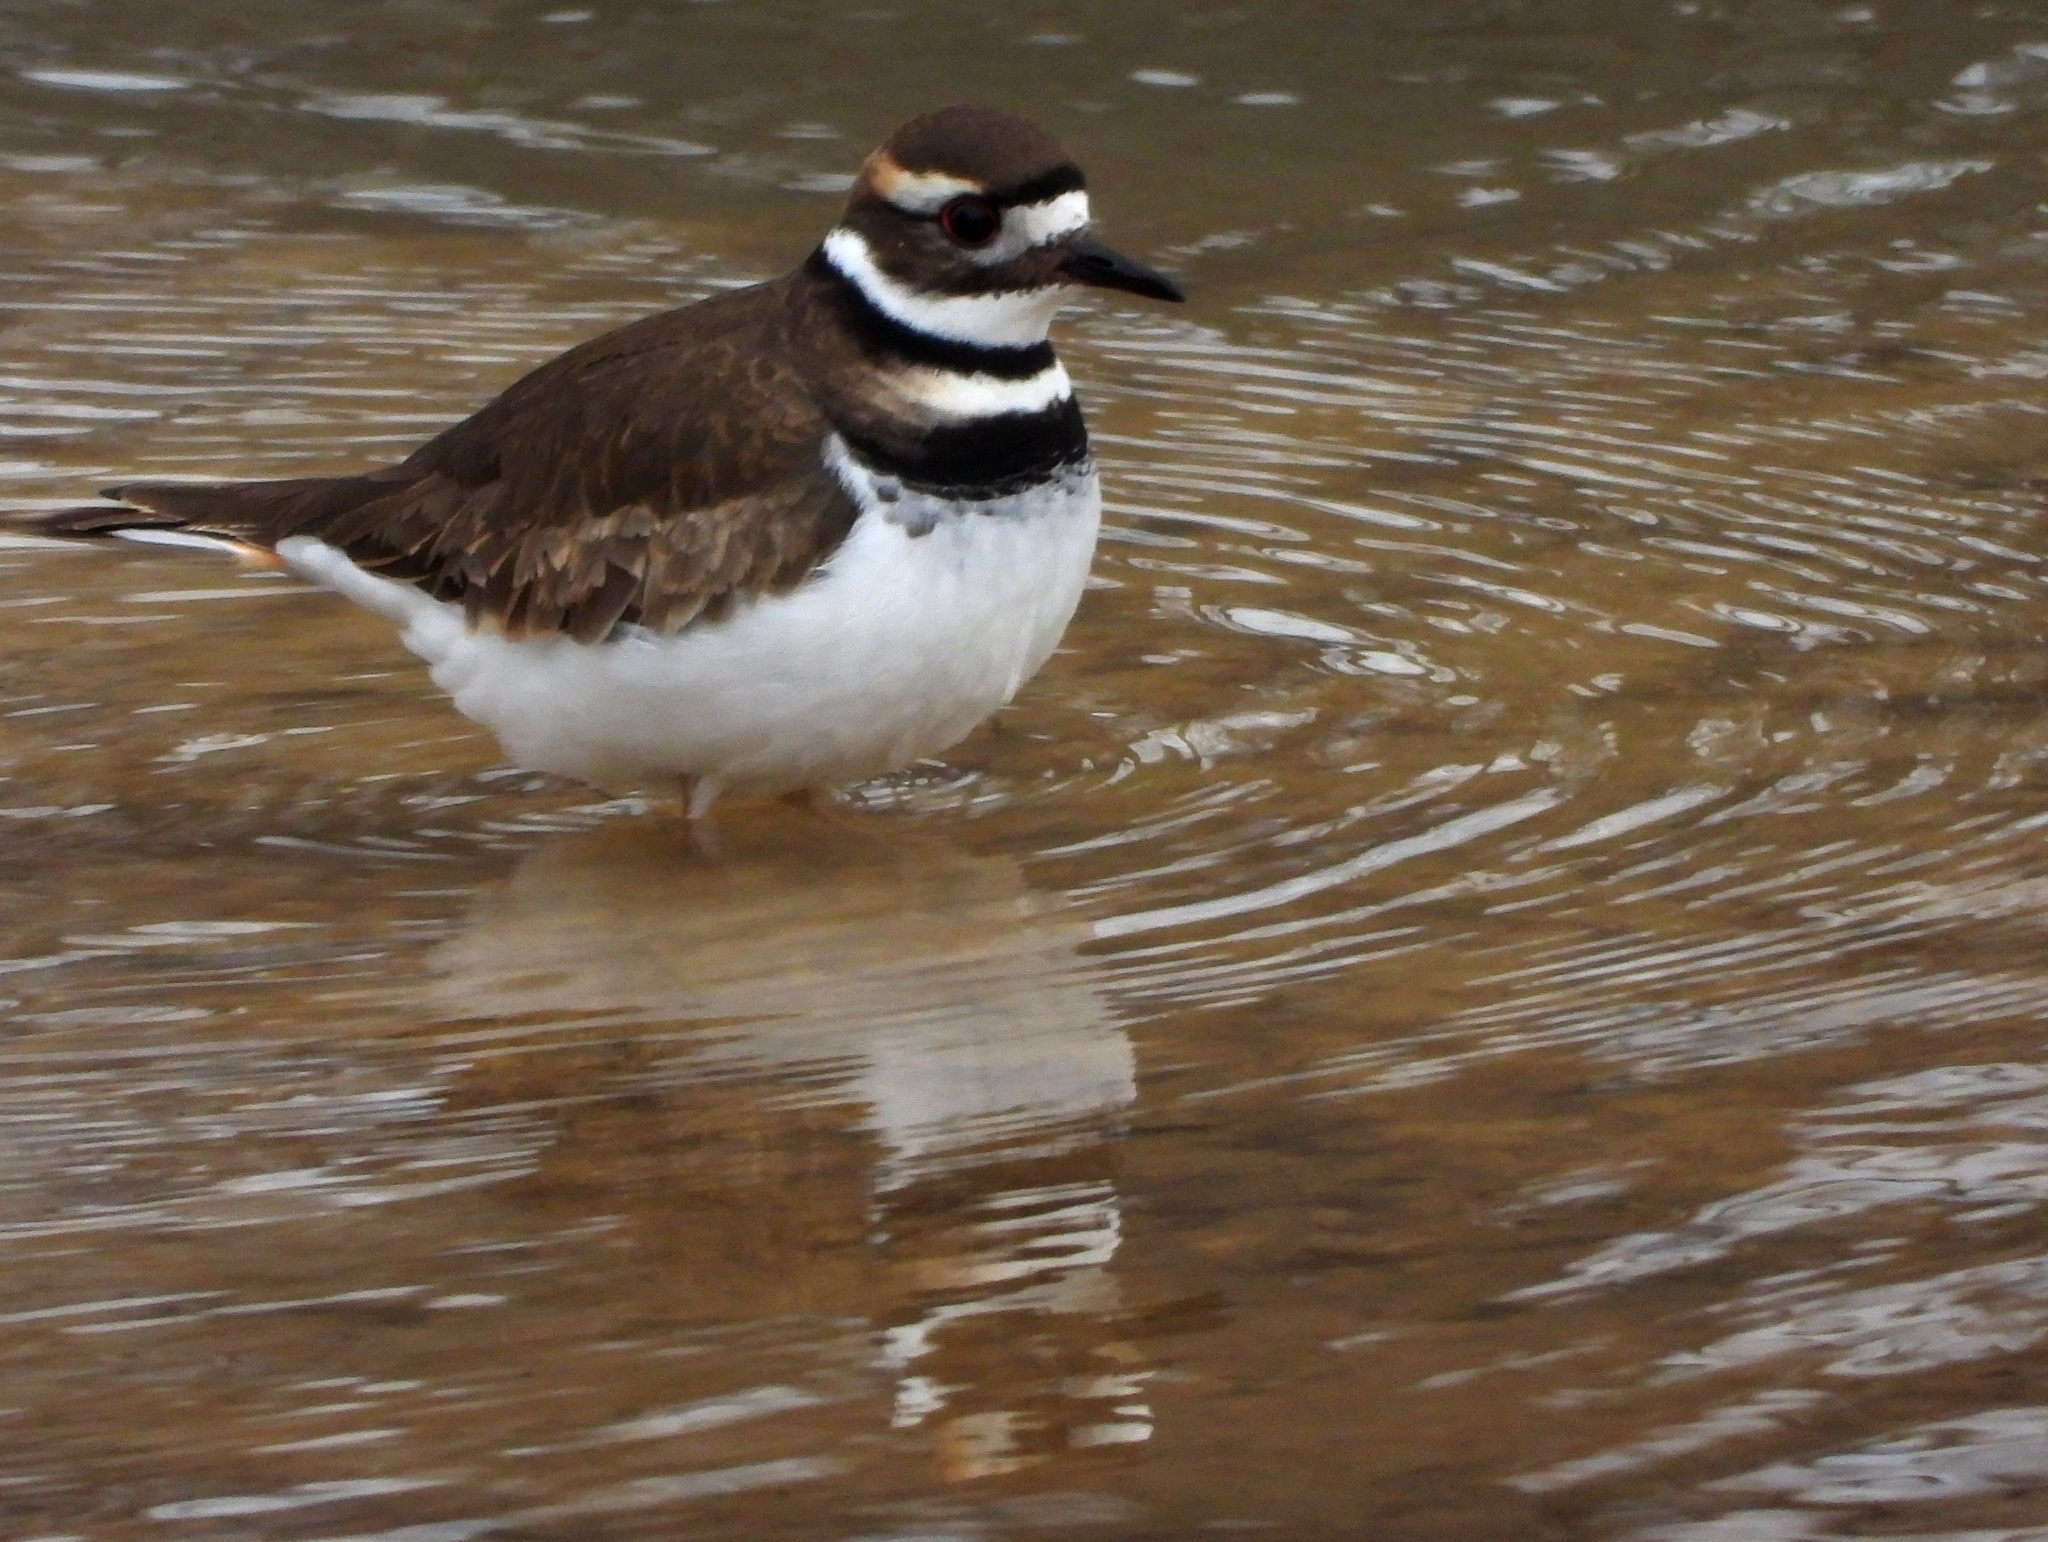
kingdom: Animalia
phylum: Chordata
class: Aves
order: Charadriiformes
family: Charadriidae
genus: Charadrius
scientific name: Charadrius vociferus
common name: Killdeer
